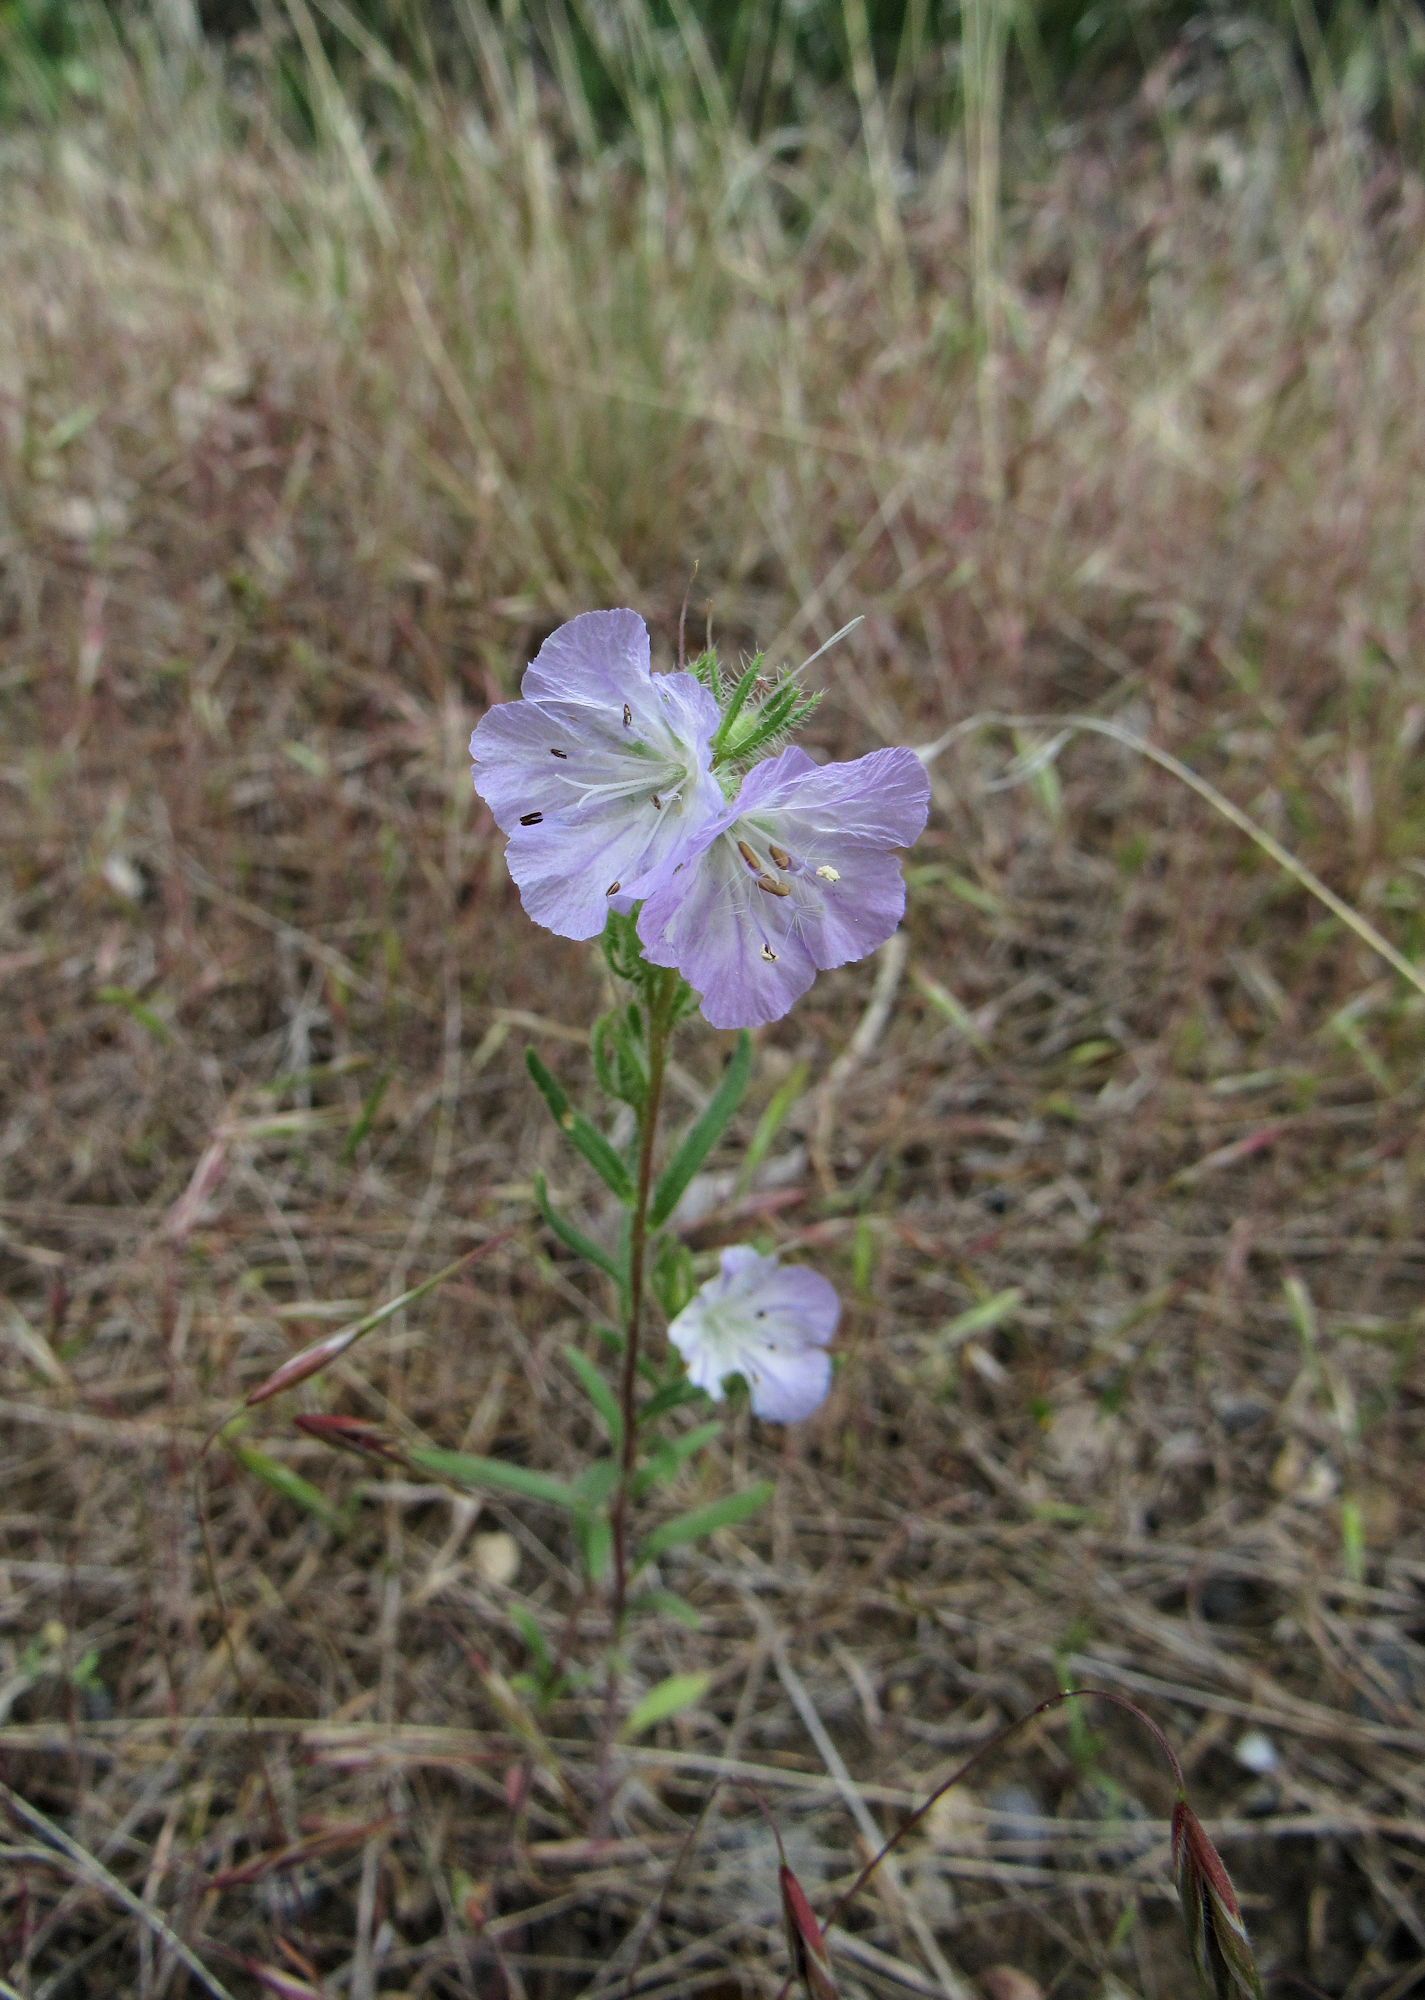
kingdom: Plantae
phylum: Tracheophyta
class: Magnoliopsida
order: Boraginales
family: Hydrophyllaceae
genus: Phacelia
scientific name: Phacelia linearis
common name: Linear-leaved phacelia
